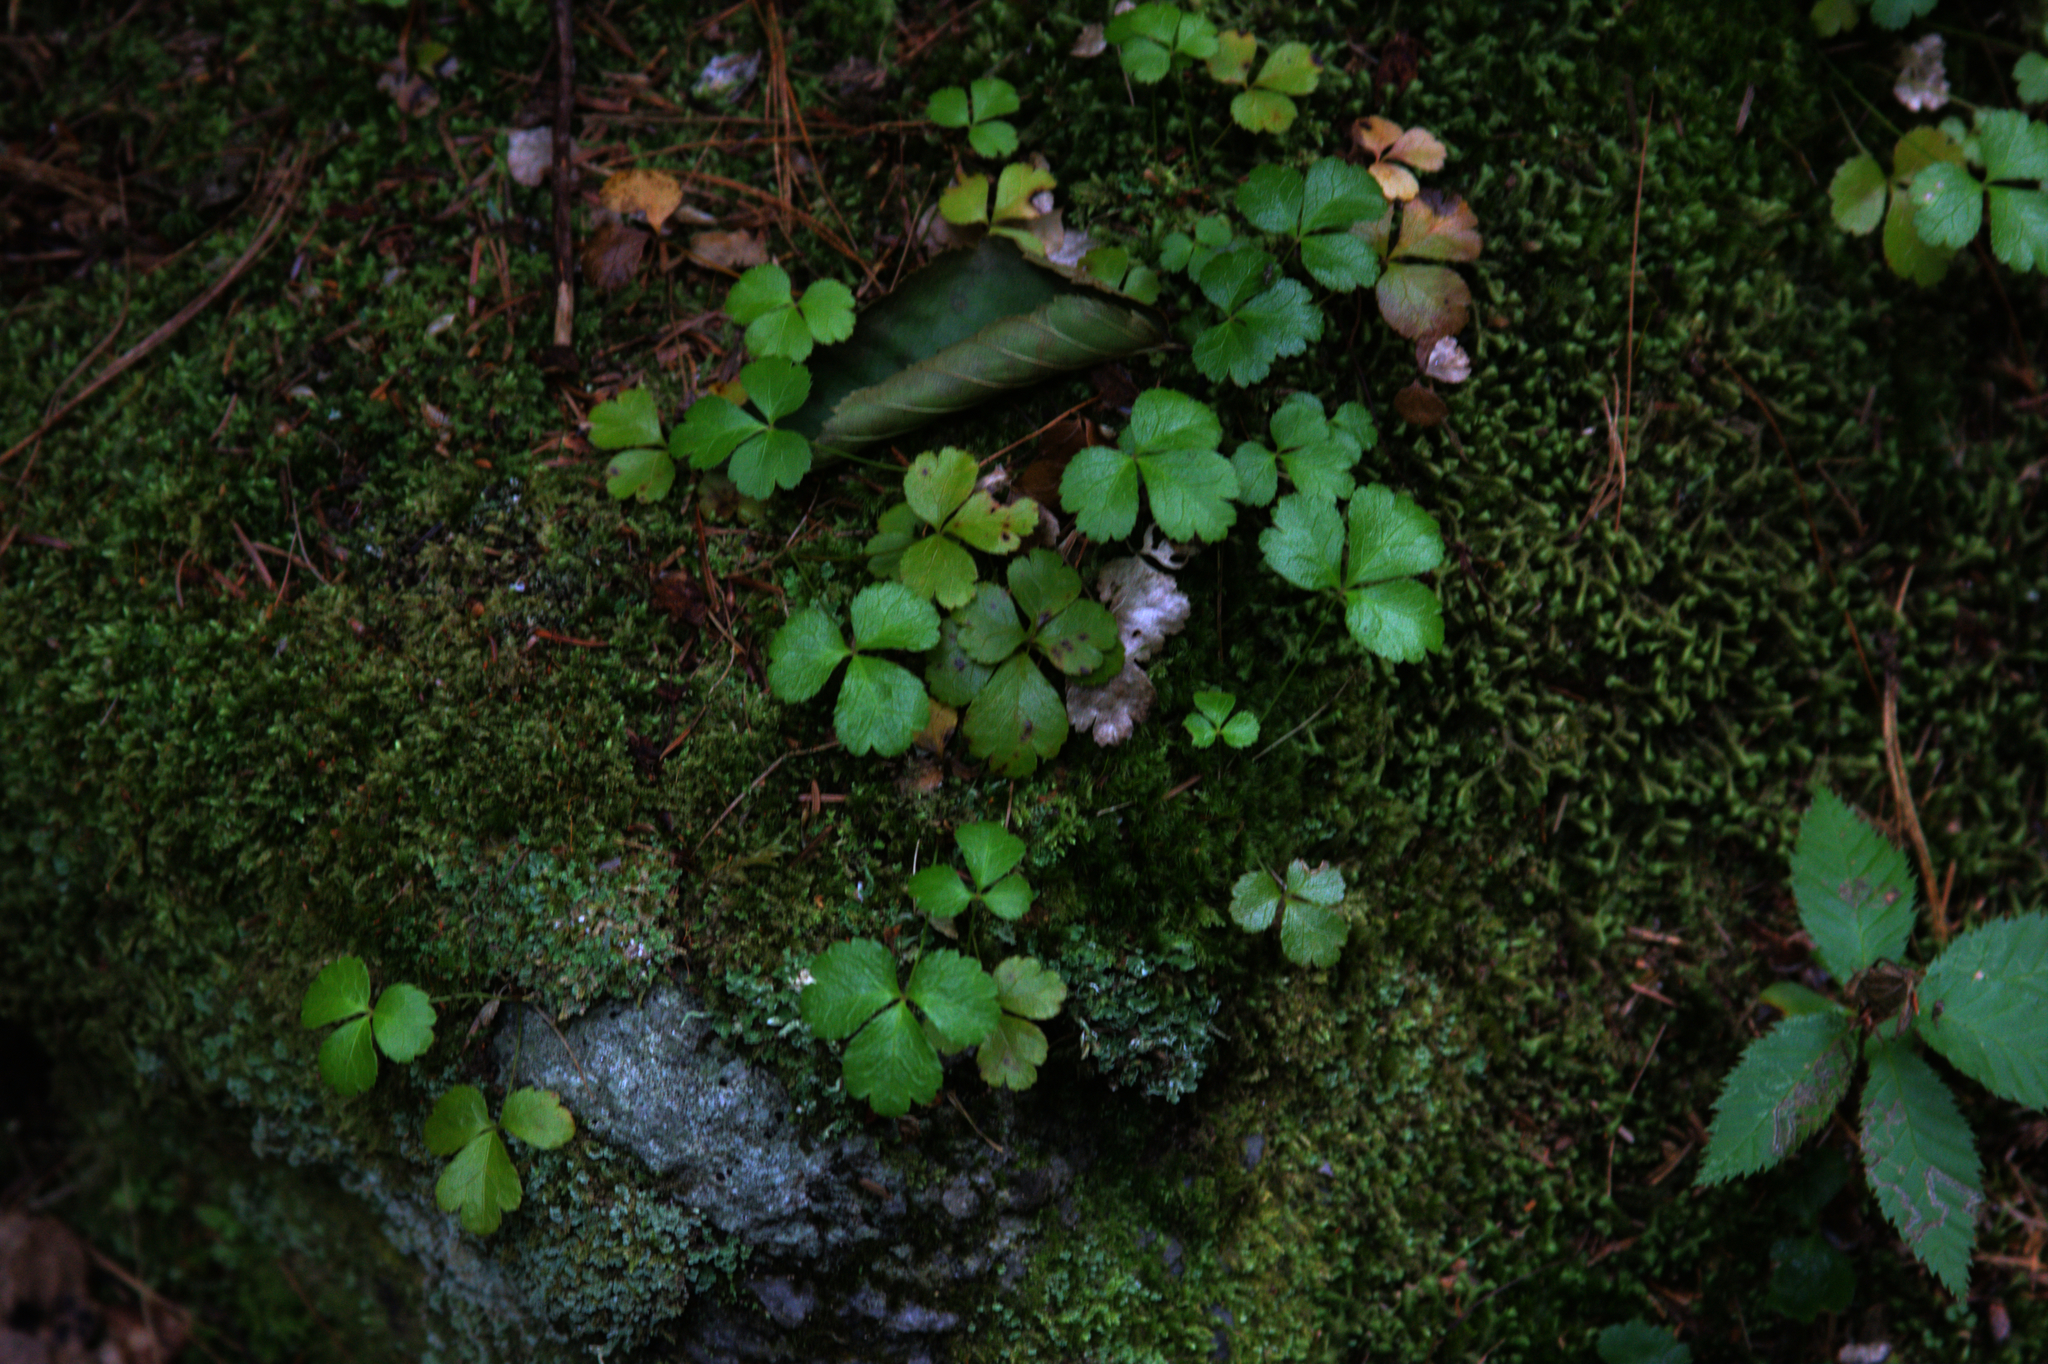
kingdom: Plantae
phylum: Tracheophyta
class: Magnoliopsida
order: Ranunculales
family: Ranunculaceae
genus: Coptis
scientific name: Coptis trifolia
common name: Canker-root
